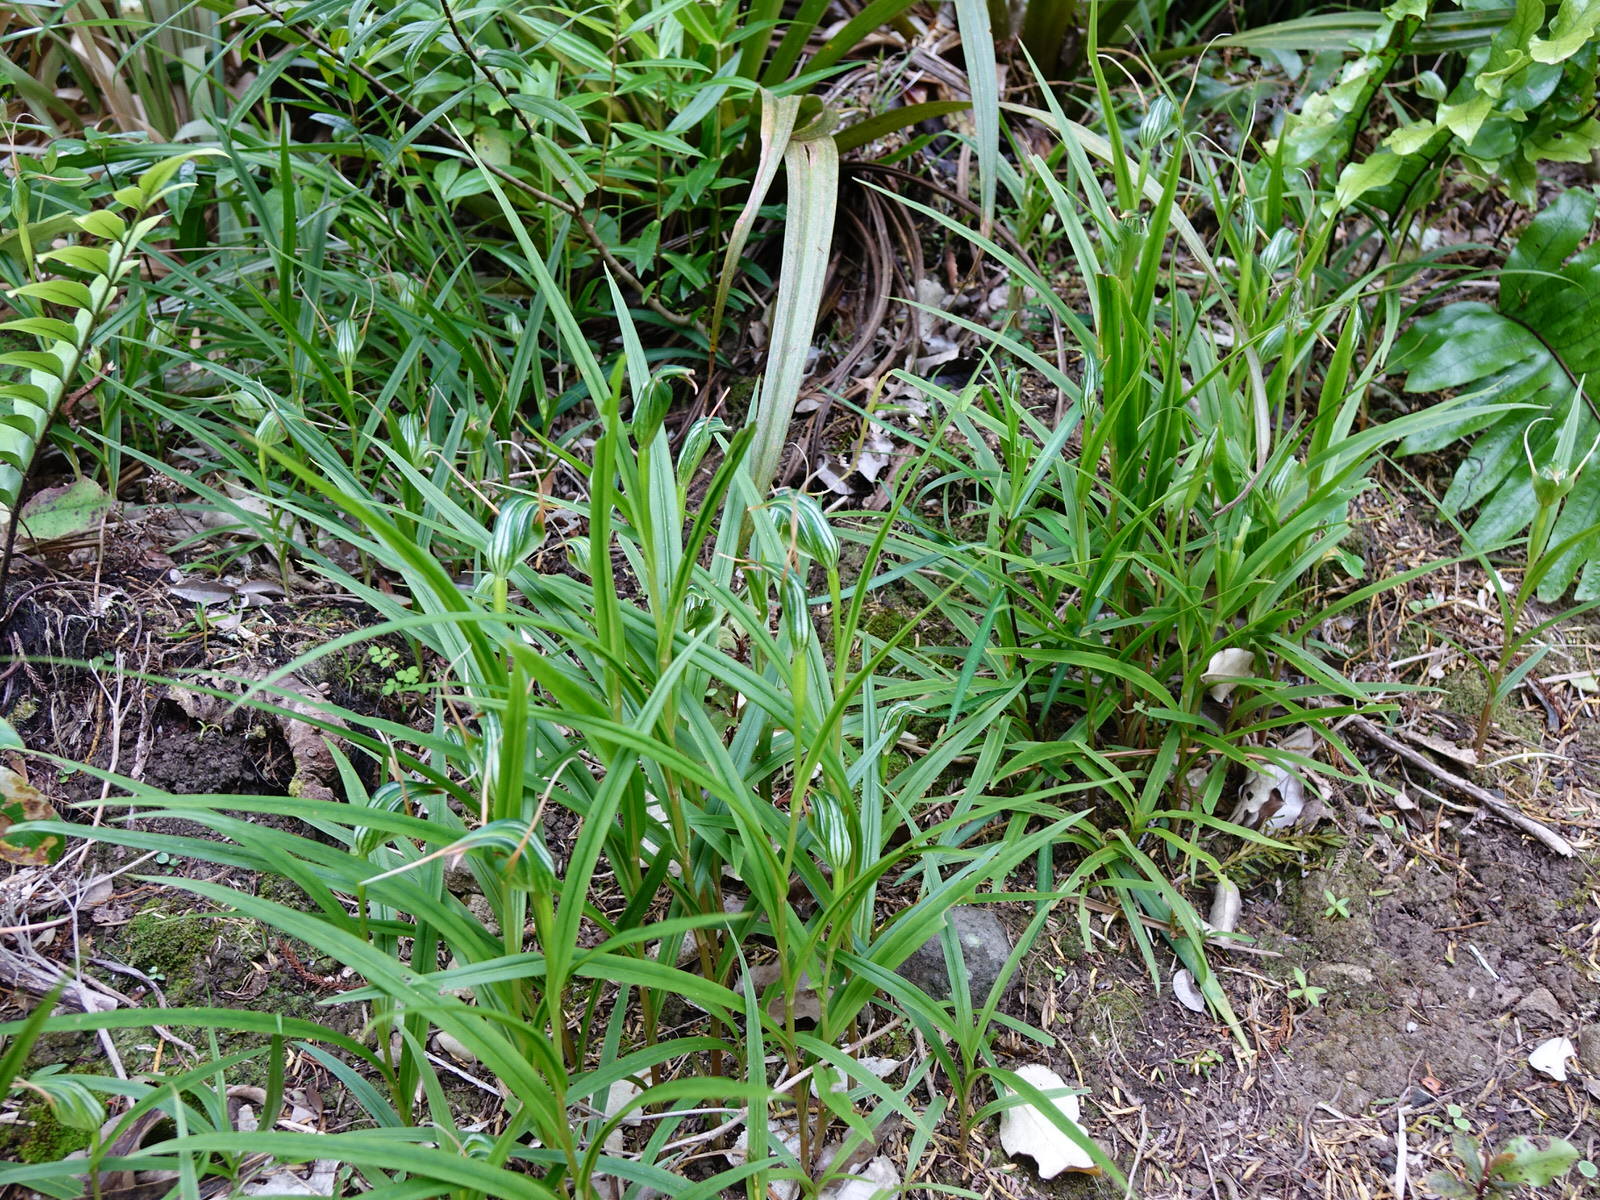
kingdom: Plantae
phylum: Tracheophyta
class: Liliopsida
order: Asparagales
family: Orchidaceae
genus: Pterostylis
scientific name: Pterostylis banksii
